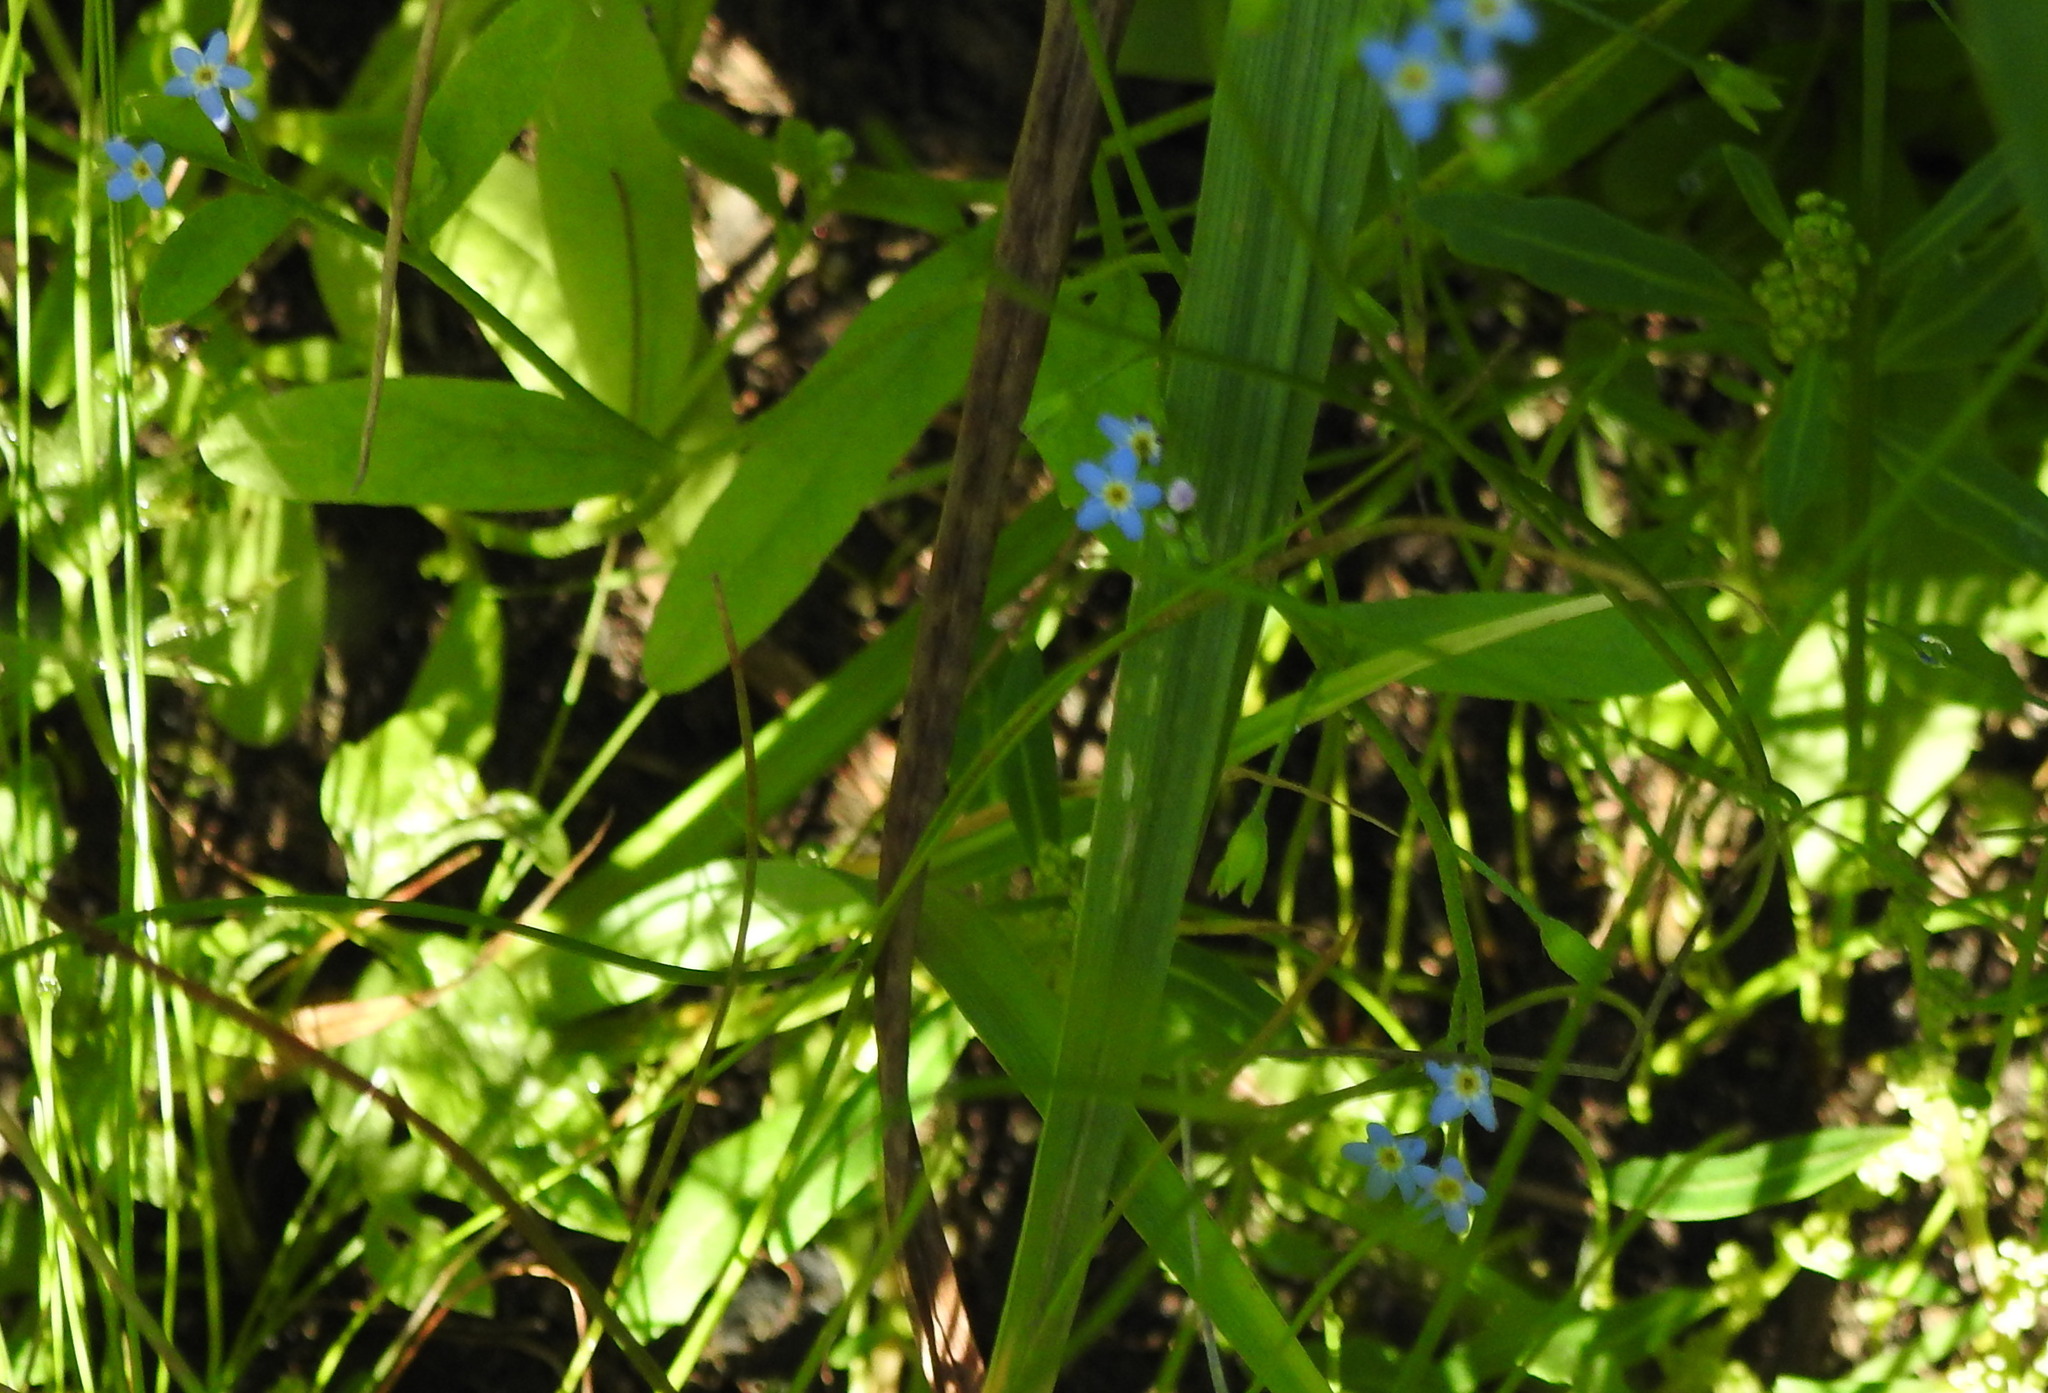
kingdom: Plantae
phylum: Tracheophyta
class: Magnoliopsida
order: Boraginales
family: Boraginaceae
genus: Myosotis
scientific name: Myosotis laxa
